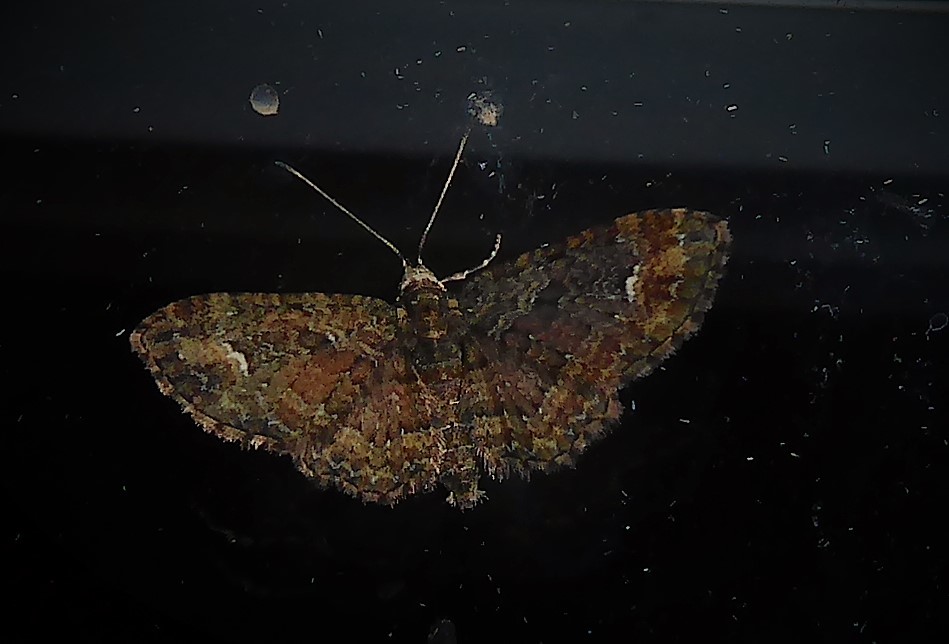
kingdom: Animalia
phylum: Arthropoda
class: Insecta
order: Lepidoptera
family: Geometridae
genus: Pasiphilodes
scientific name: Pasiphilodes testulata
